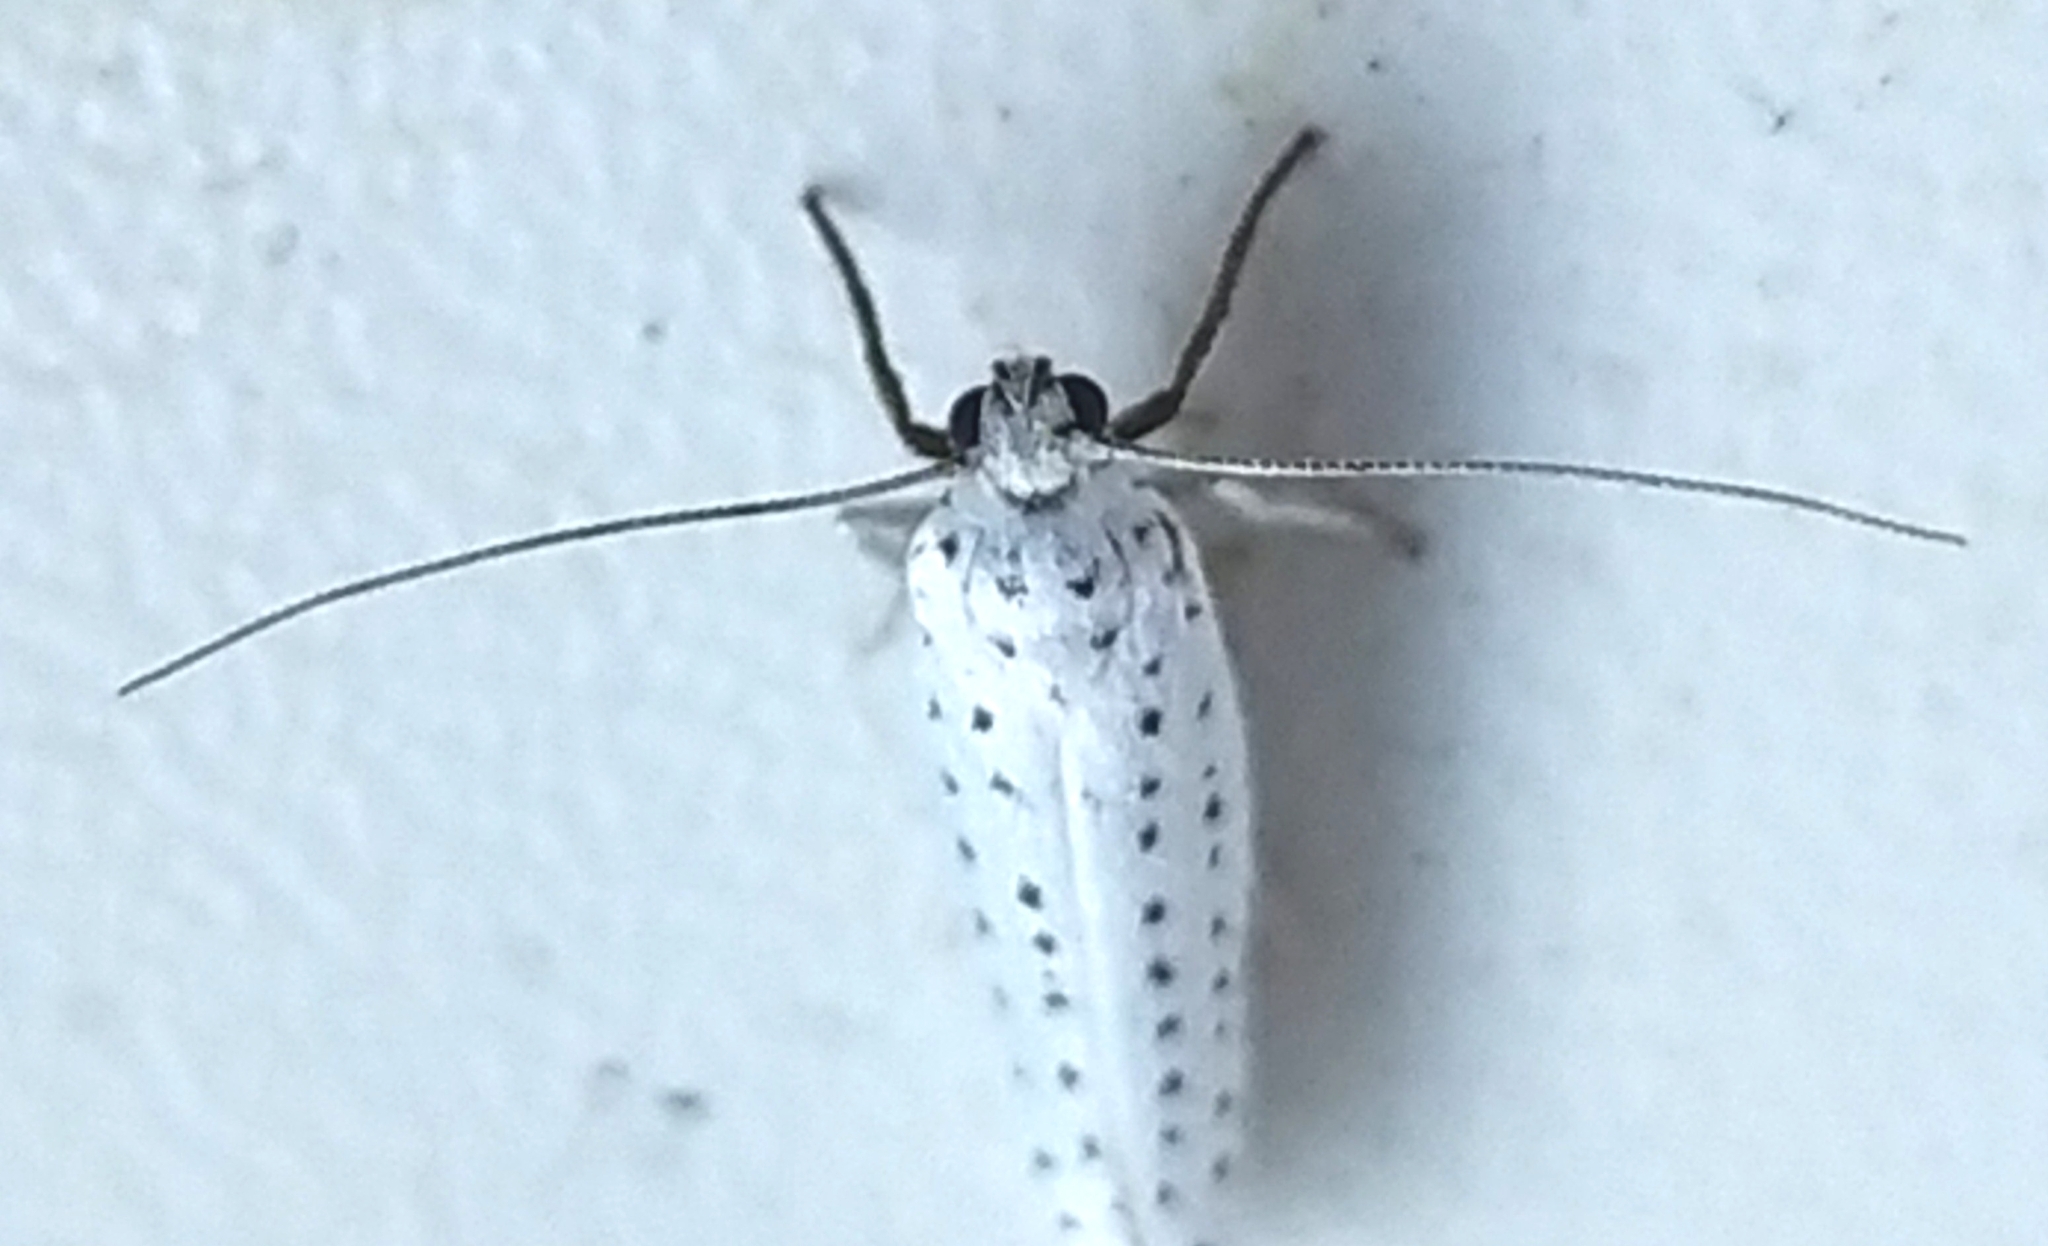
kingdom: Animalia
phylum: Arthropoda
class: Insecta
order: Lepidoptera
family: Yponomeutidae
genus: Yponomeuta
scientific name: Yponomeuta evonymella
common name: Bird-cherry ermine
